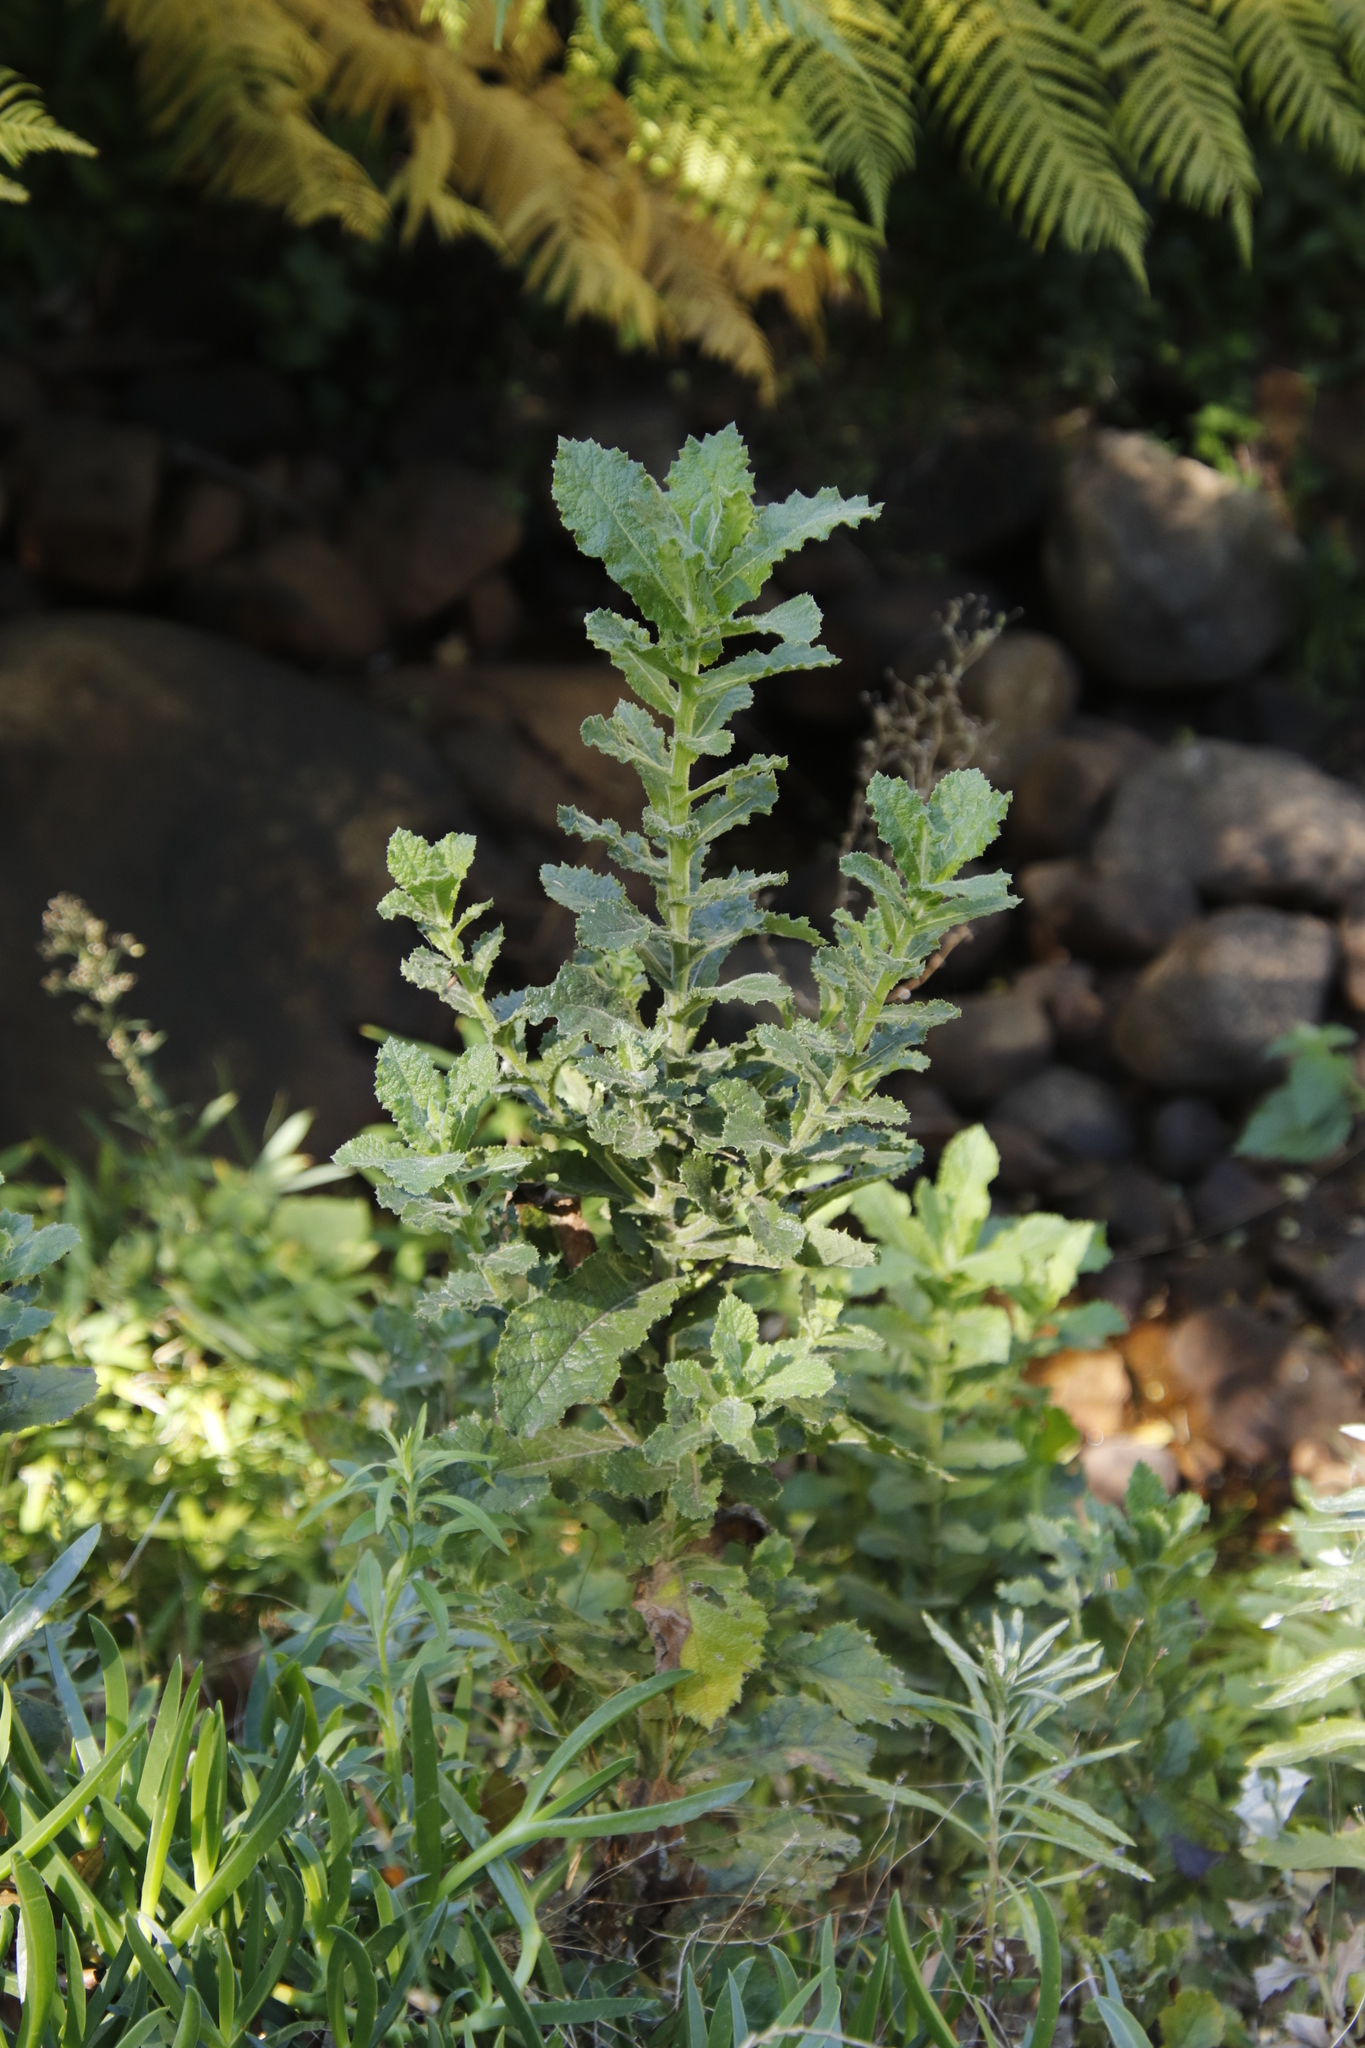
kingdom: Plantae
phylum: Tracheophyta
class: Magnoliopsida
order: Asterales
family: Asteraceae
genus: Senecio
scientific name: Senecio rigidus
